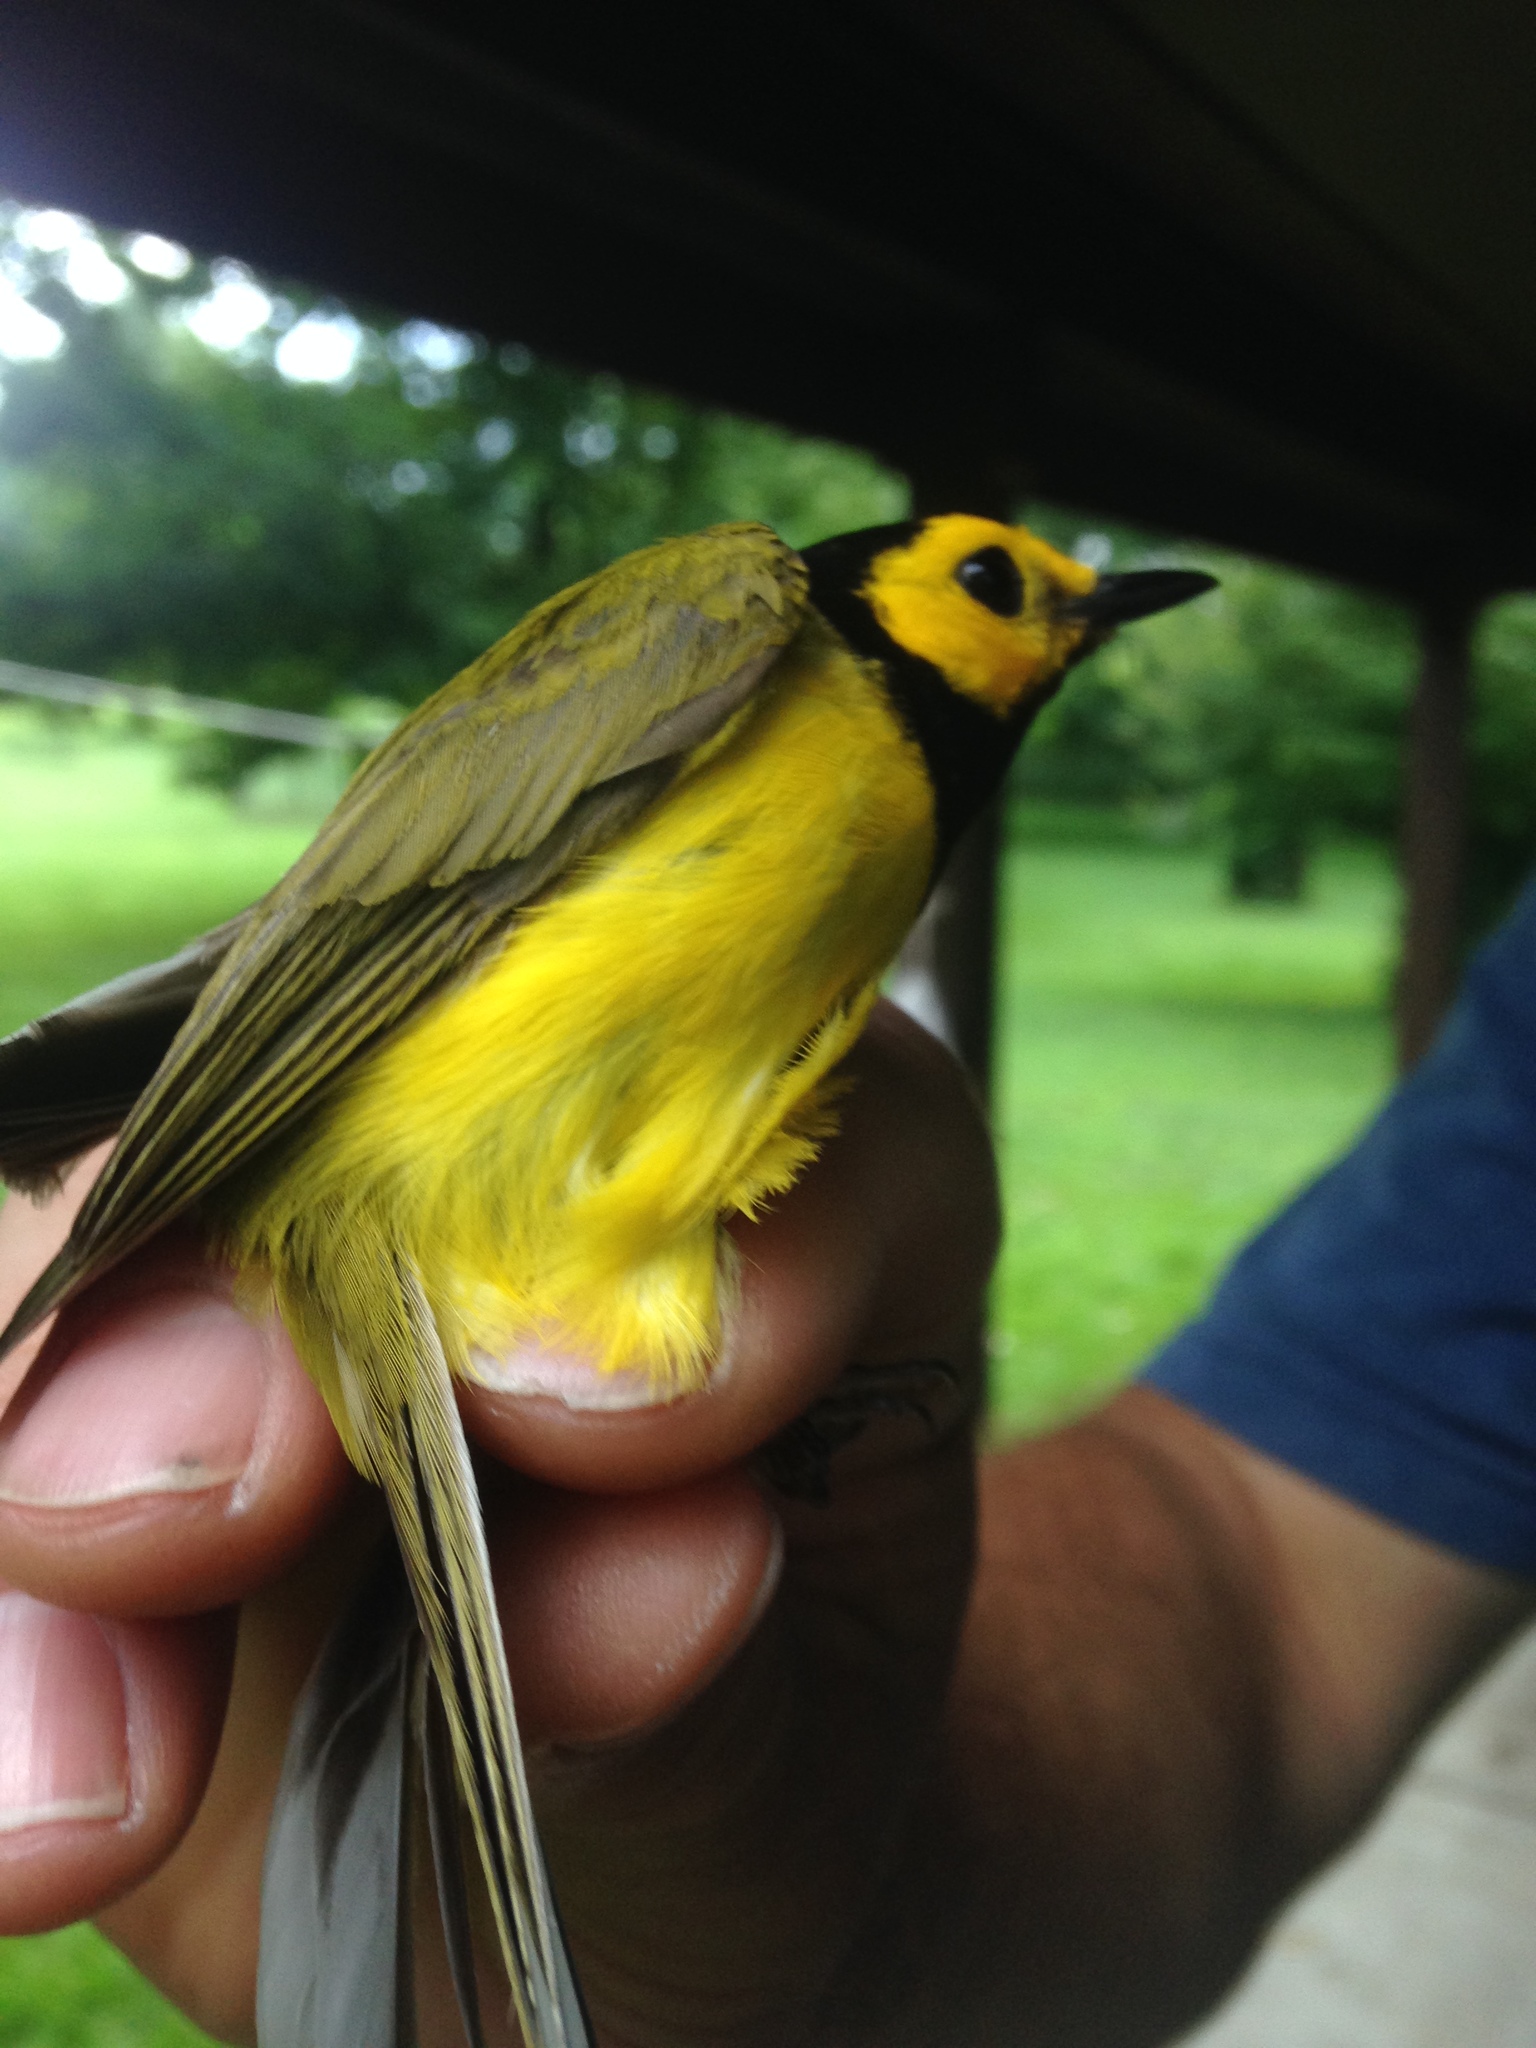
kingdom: Animalia
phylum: Chordata
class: Aves
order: Passeriformes
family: Parulidae
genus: Setophaga
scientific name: Setophaga citrina
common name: Hooded warbler
